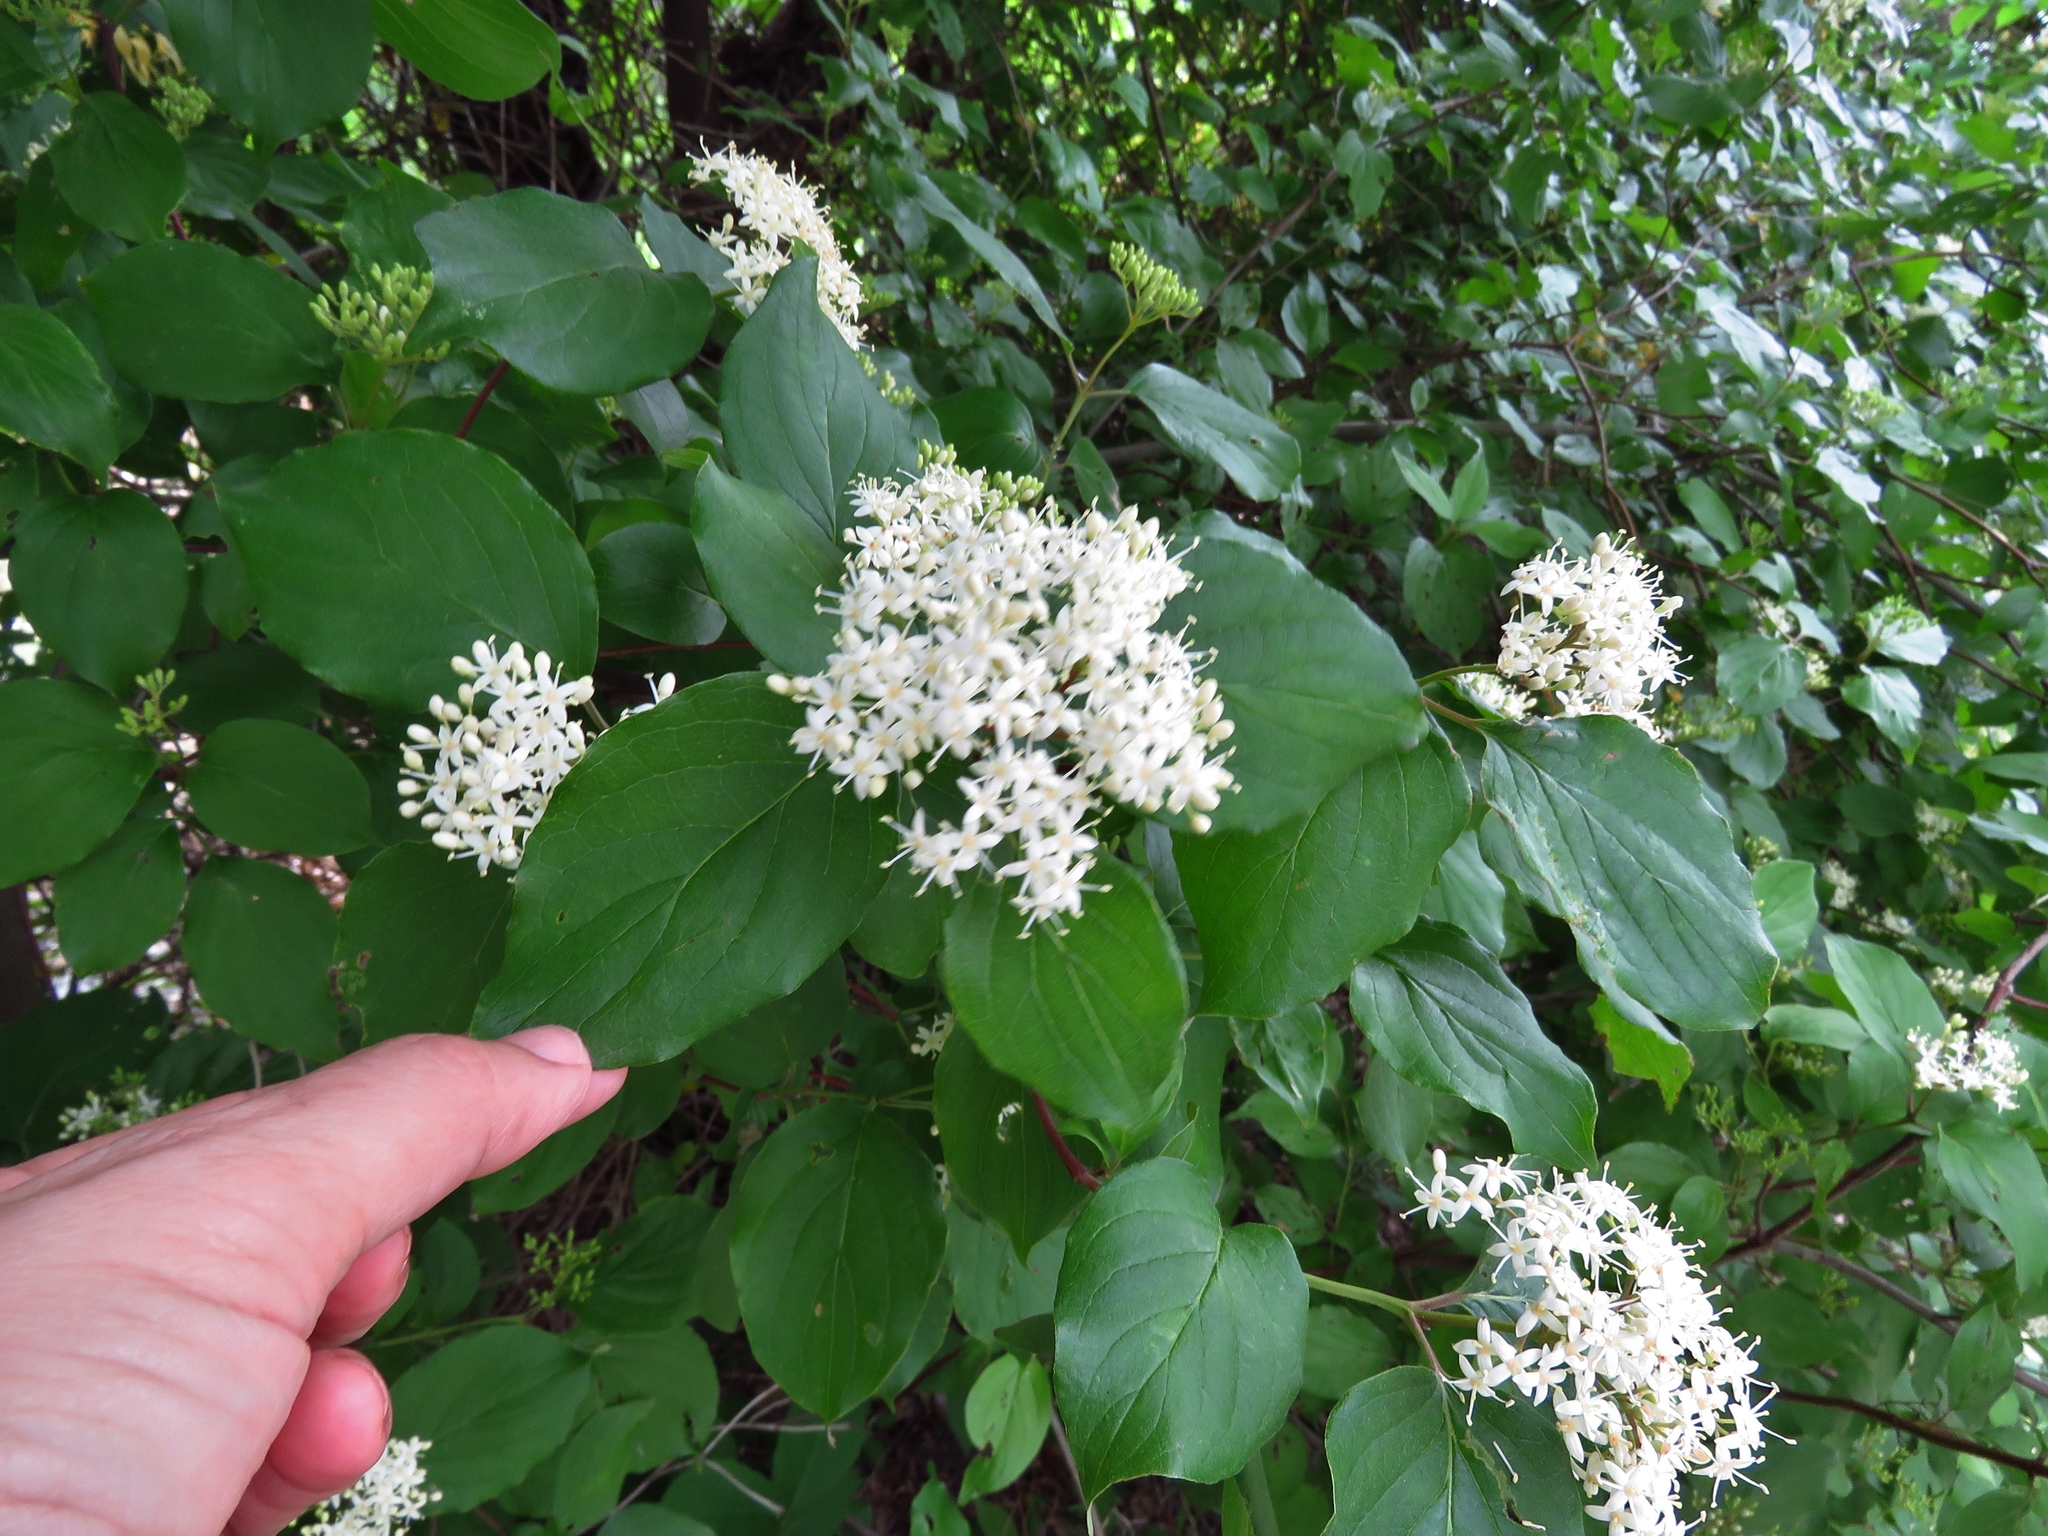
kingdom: Plantae
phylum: Tracheophyta
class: Magnoliopsida
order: Cornales
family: Cornaceae
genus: Cornus
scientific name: Cornus drummondii
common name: Rough-leaf dogwood
